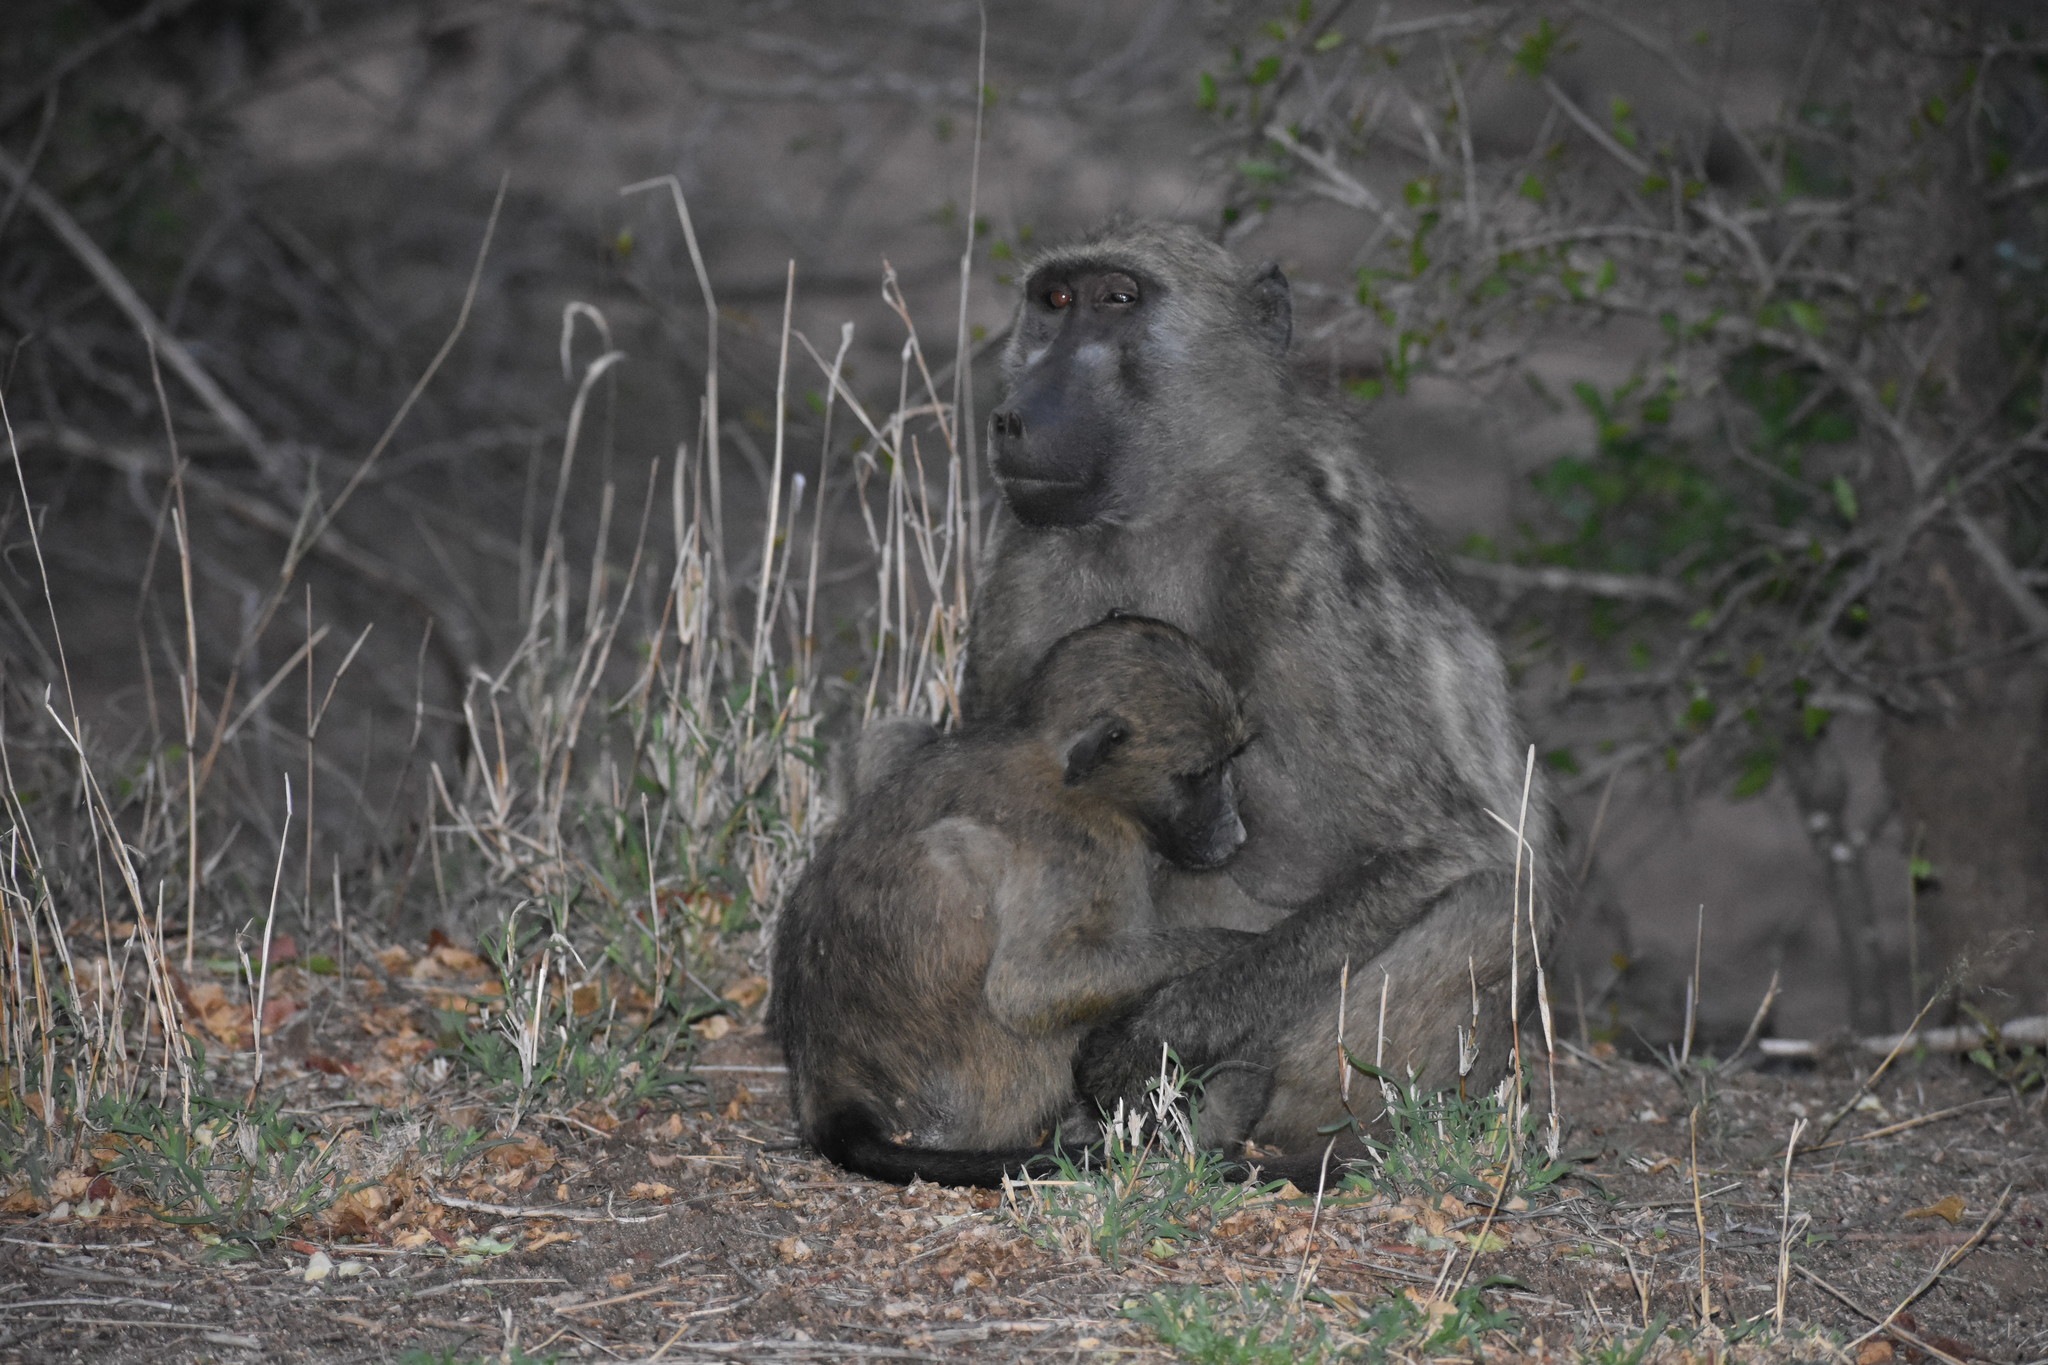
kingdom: Animalia
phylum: Chordata
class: Mammalia
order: Primates
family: Cercopithecidae
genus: Papio
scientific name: Papio ursinus
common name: Chacma baboon
